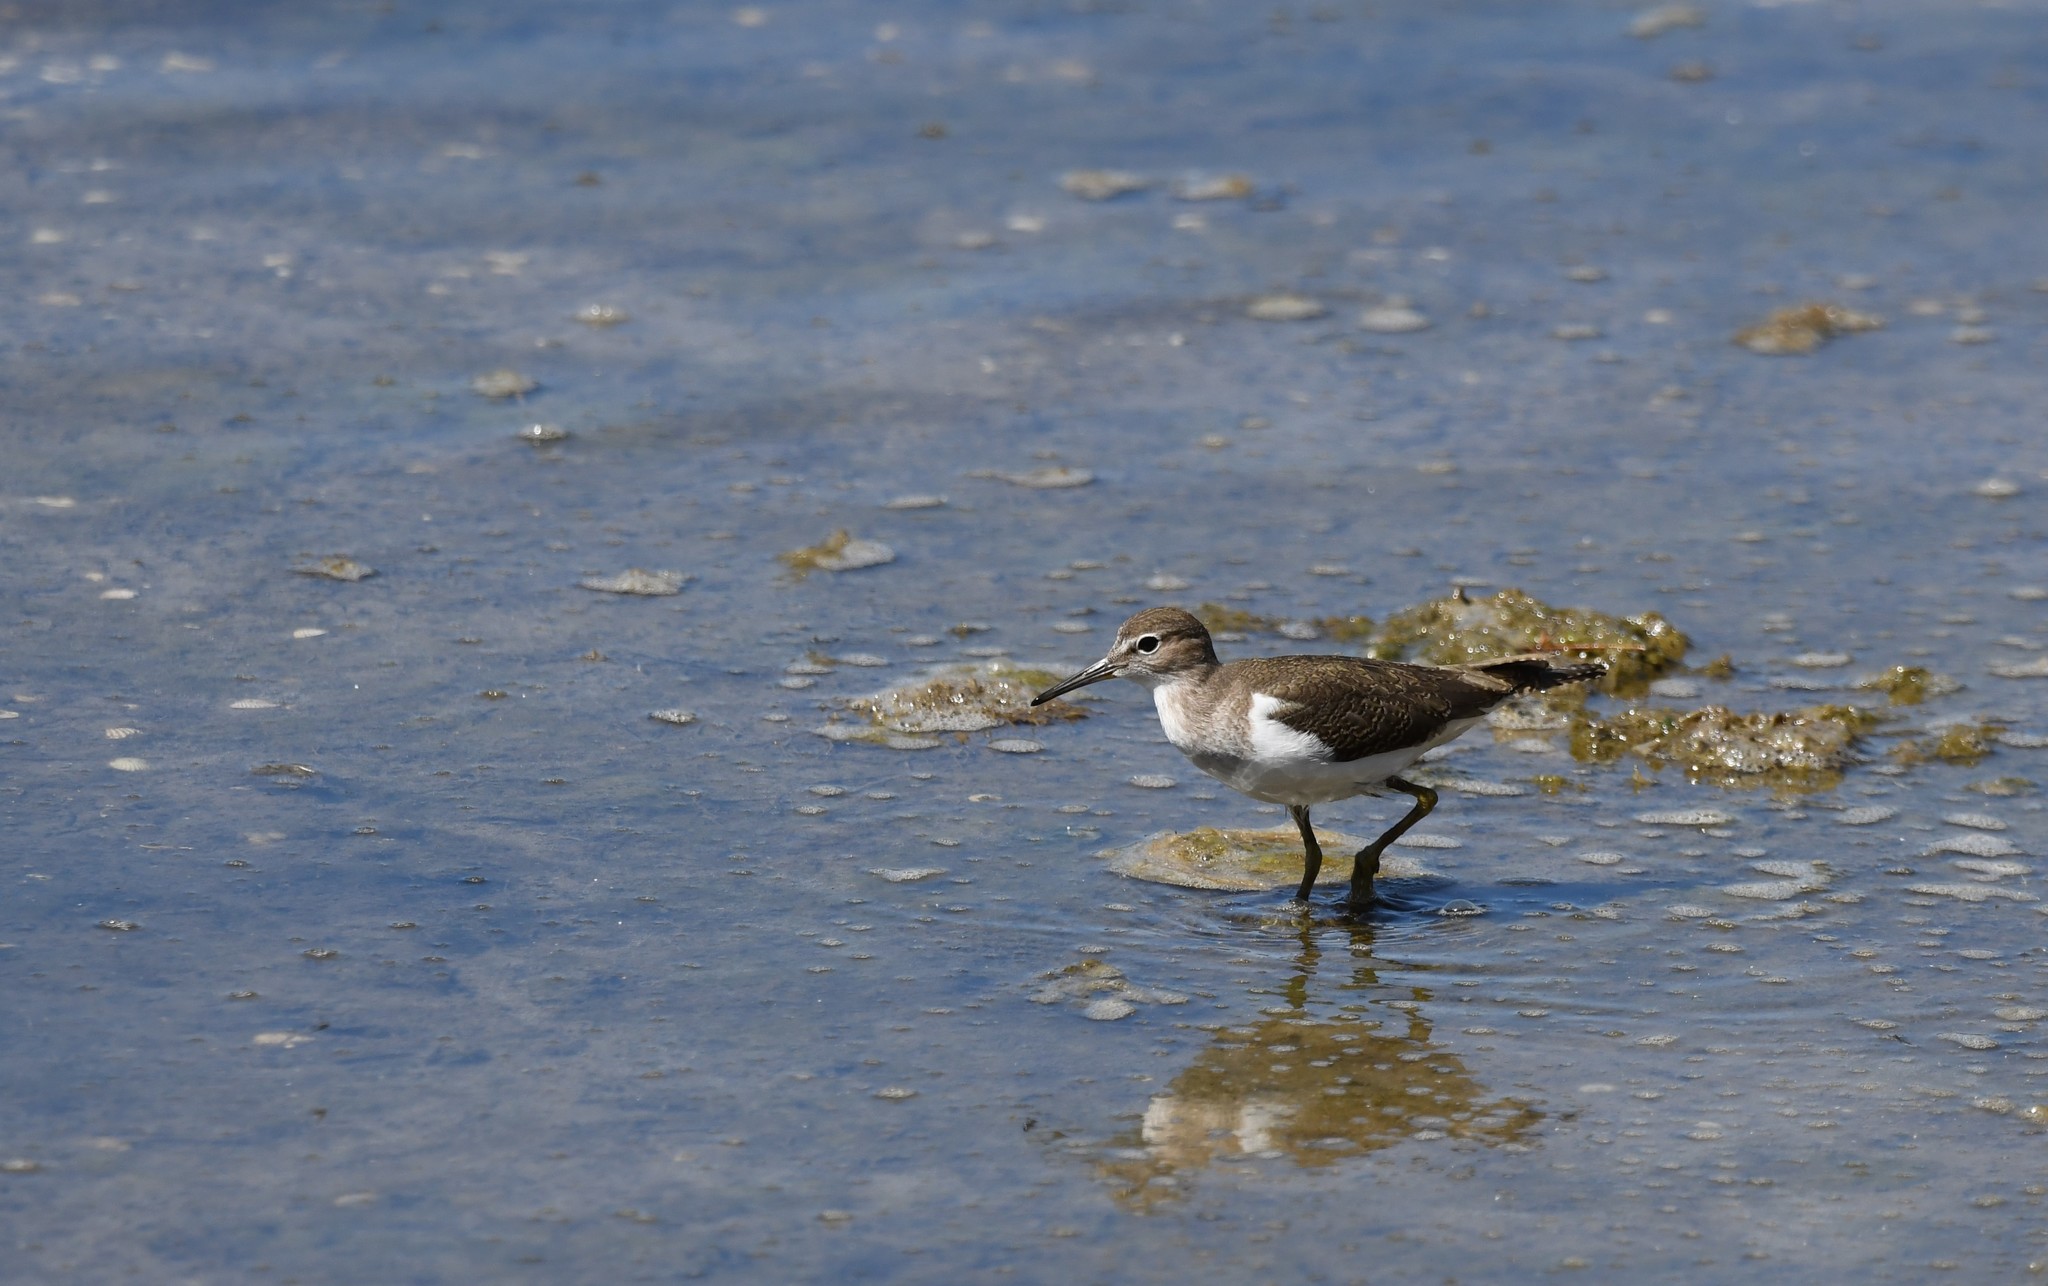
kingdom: Animalia
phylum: Chordata
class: Aves
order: Charadriiformes
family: Scolopacidae
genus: Actitis
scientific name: Actitis hypoleucos
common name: Common sandpiper
